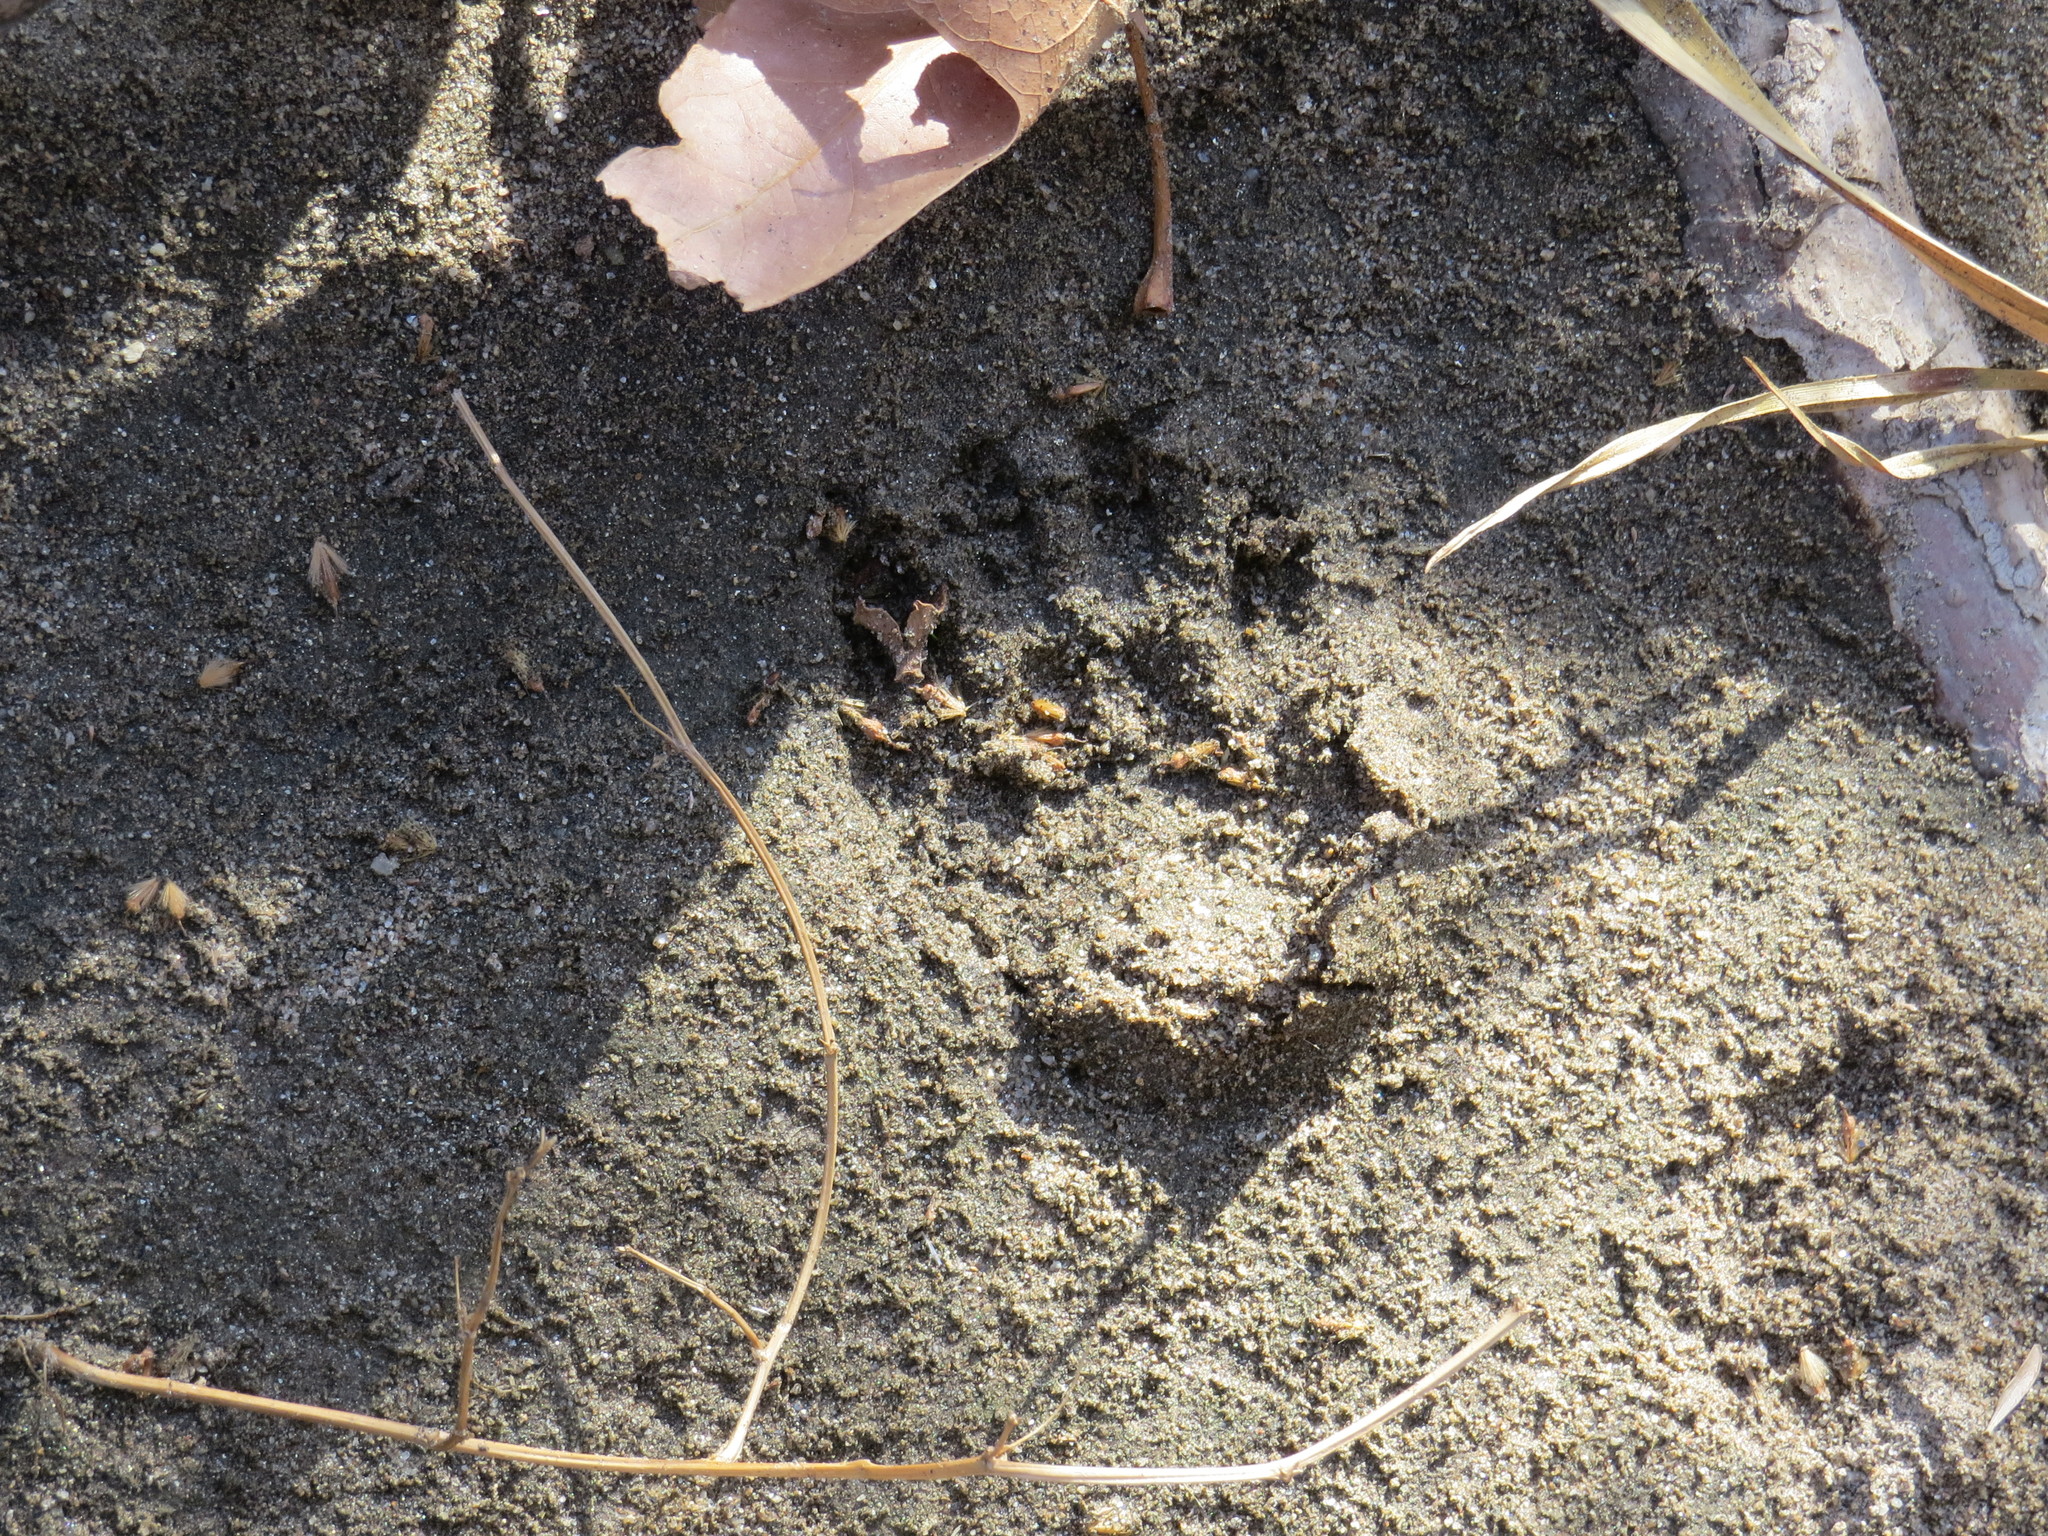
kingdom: Animalia
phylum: Chordata
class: Mammalia
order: Carnivora
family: Procyonidae
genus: Procyon
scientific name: Procyon lotor
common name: Raccoon
